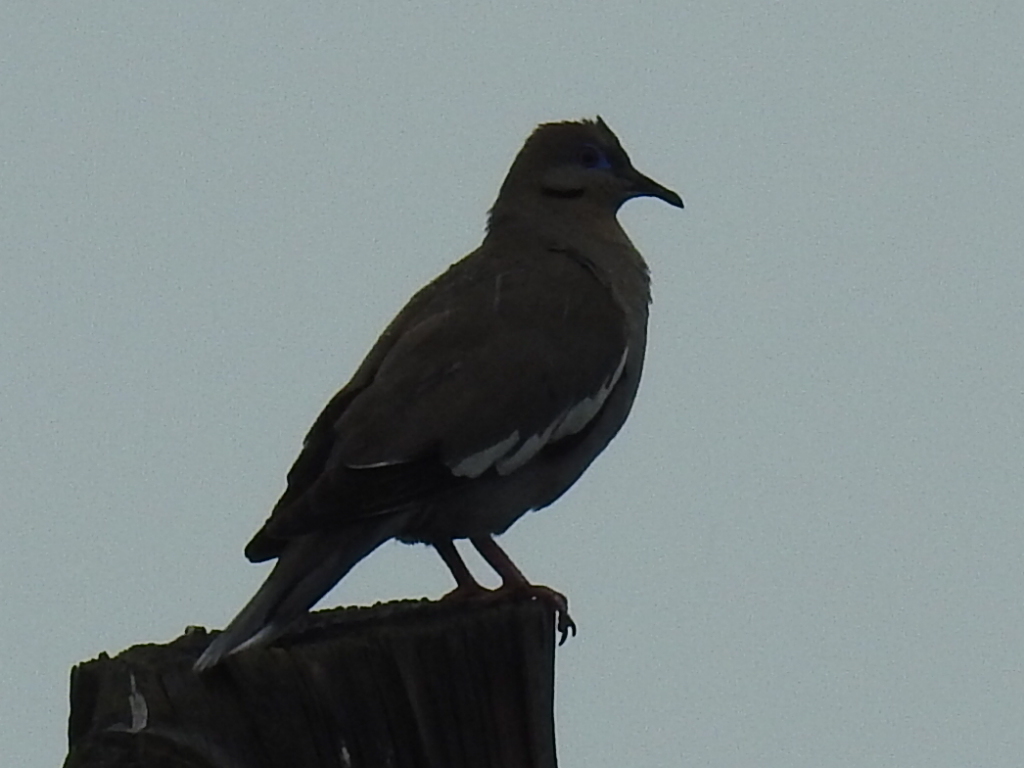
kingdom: Animalia
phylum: Chordata
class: Aves
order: Columbiformes
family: Columbidae
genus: Zenaida
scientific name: Zenaida asiatica
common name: White-winged dove
